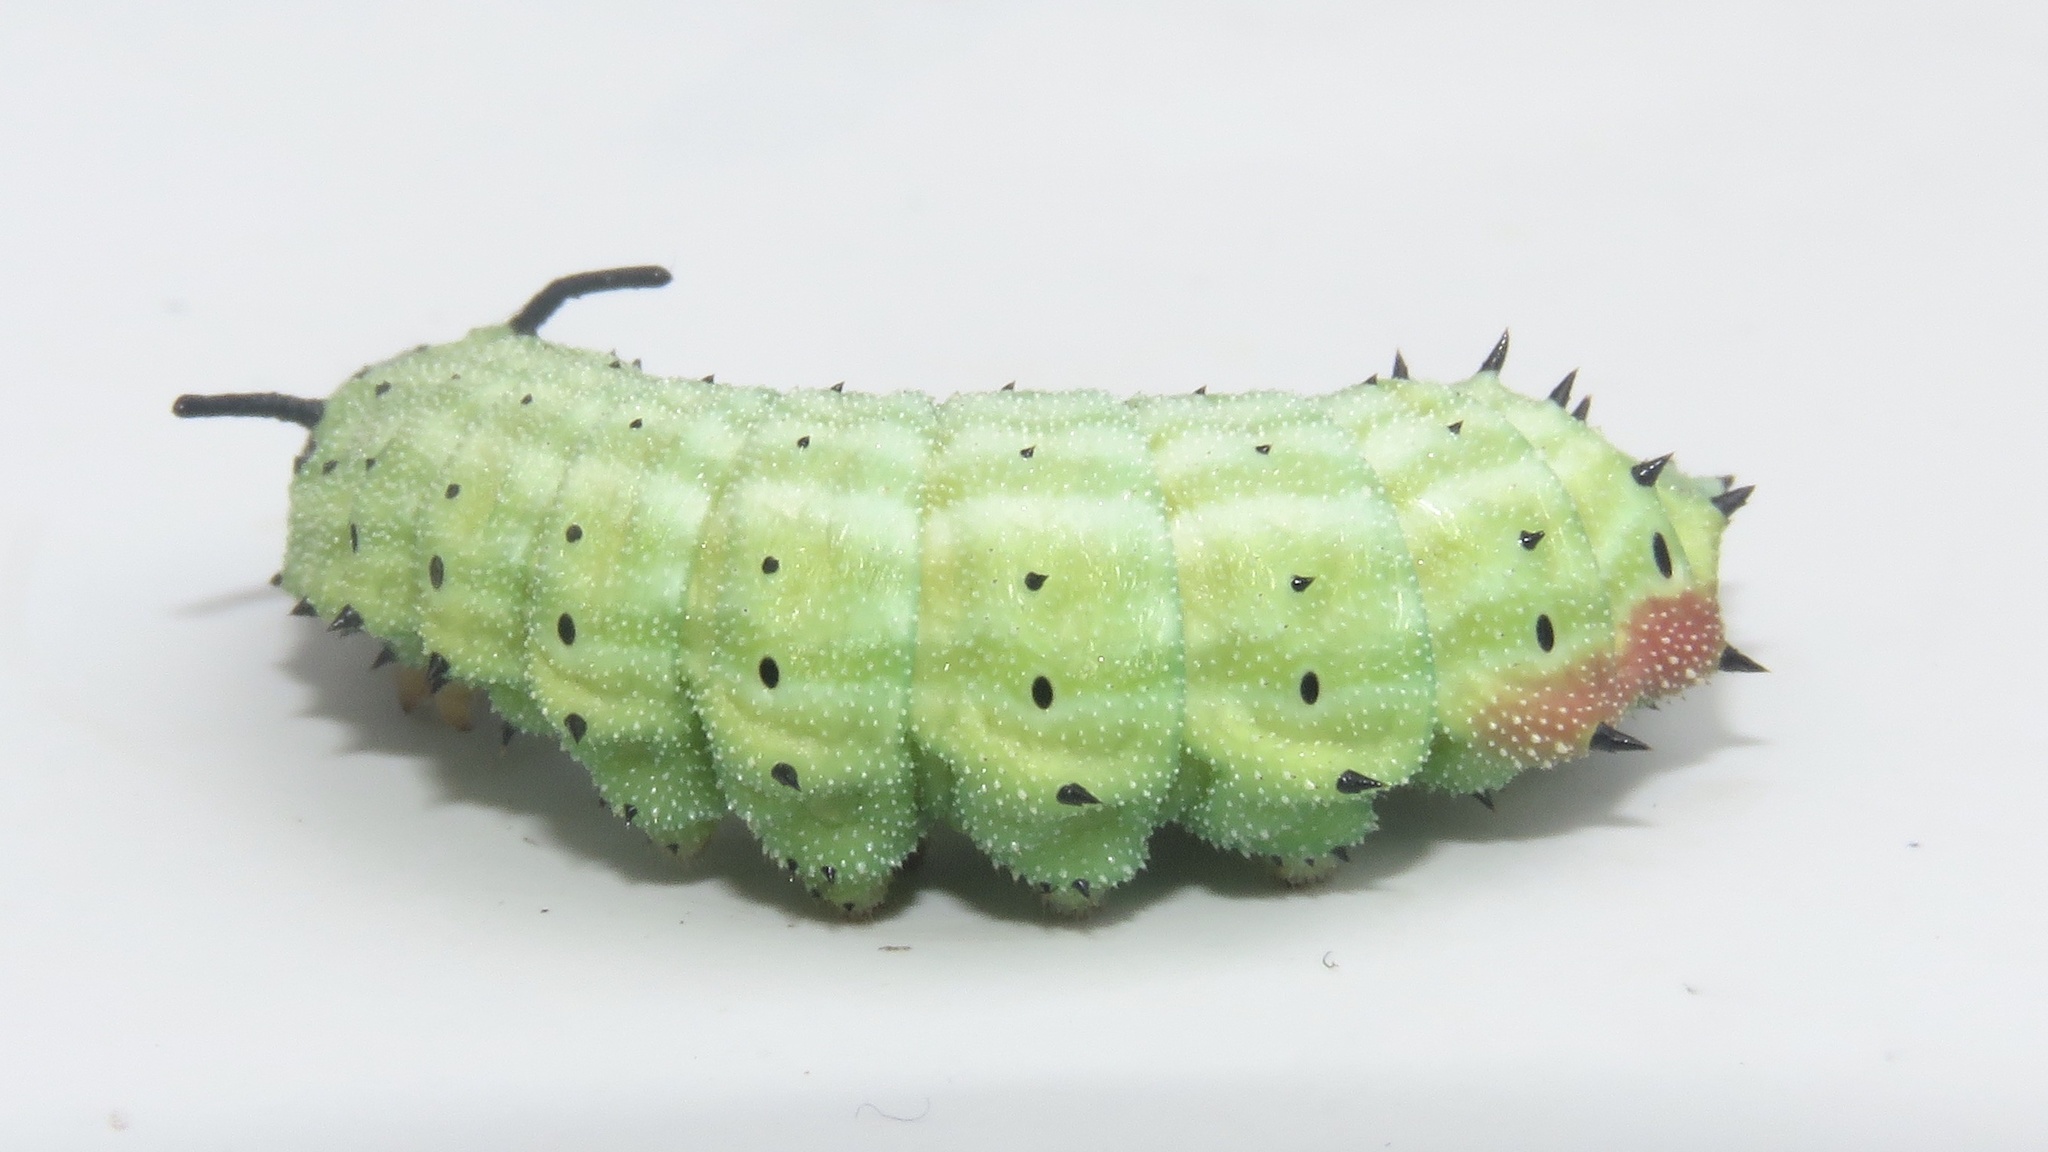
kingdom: Animalia
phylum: Arthropoda
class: Insecta
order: Lepidoptera
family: Saturniidae
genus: Dryocampa
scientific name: Dryocampa rubicunda
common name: Rosy maple moth
